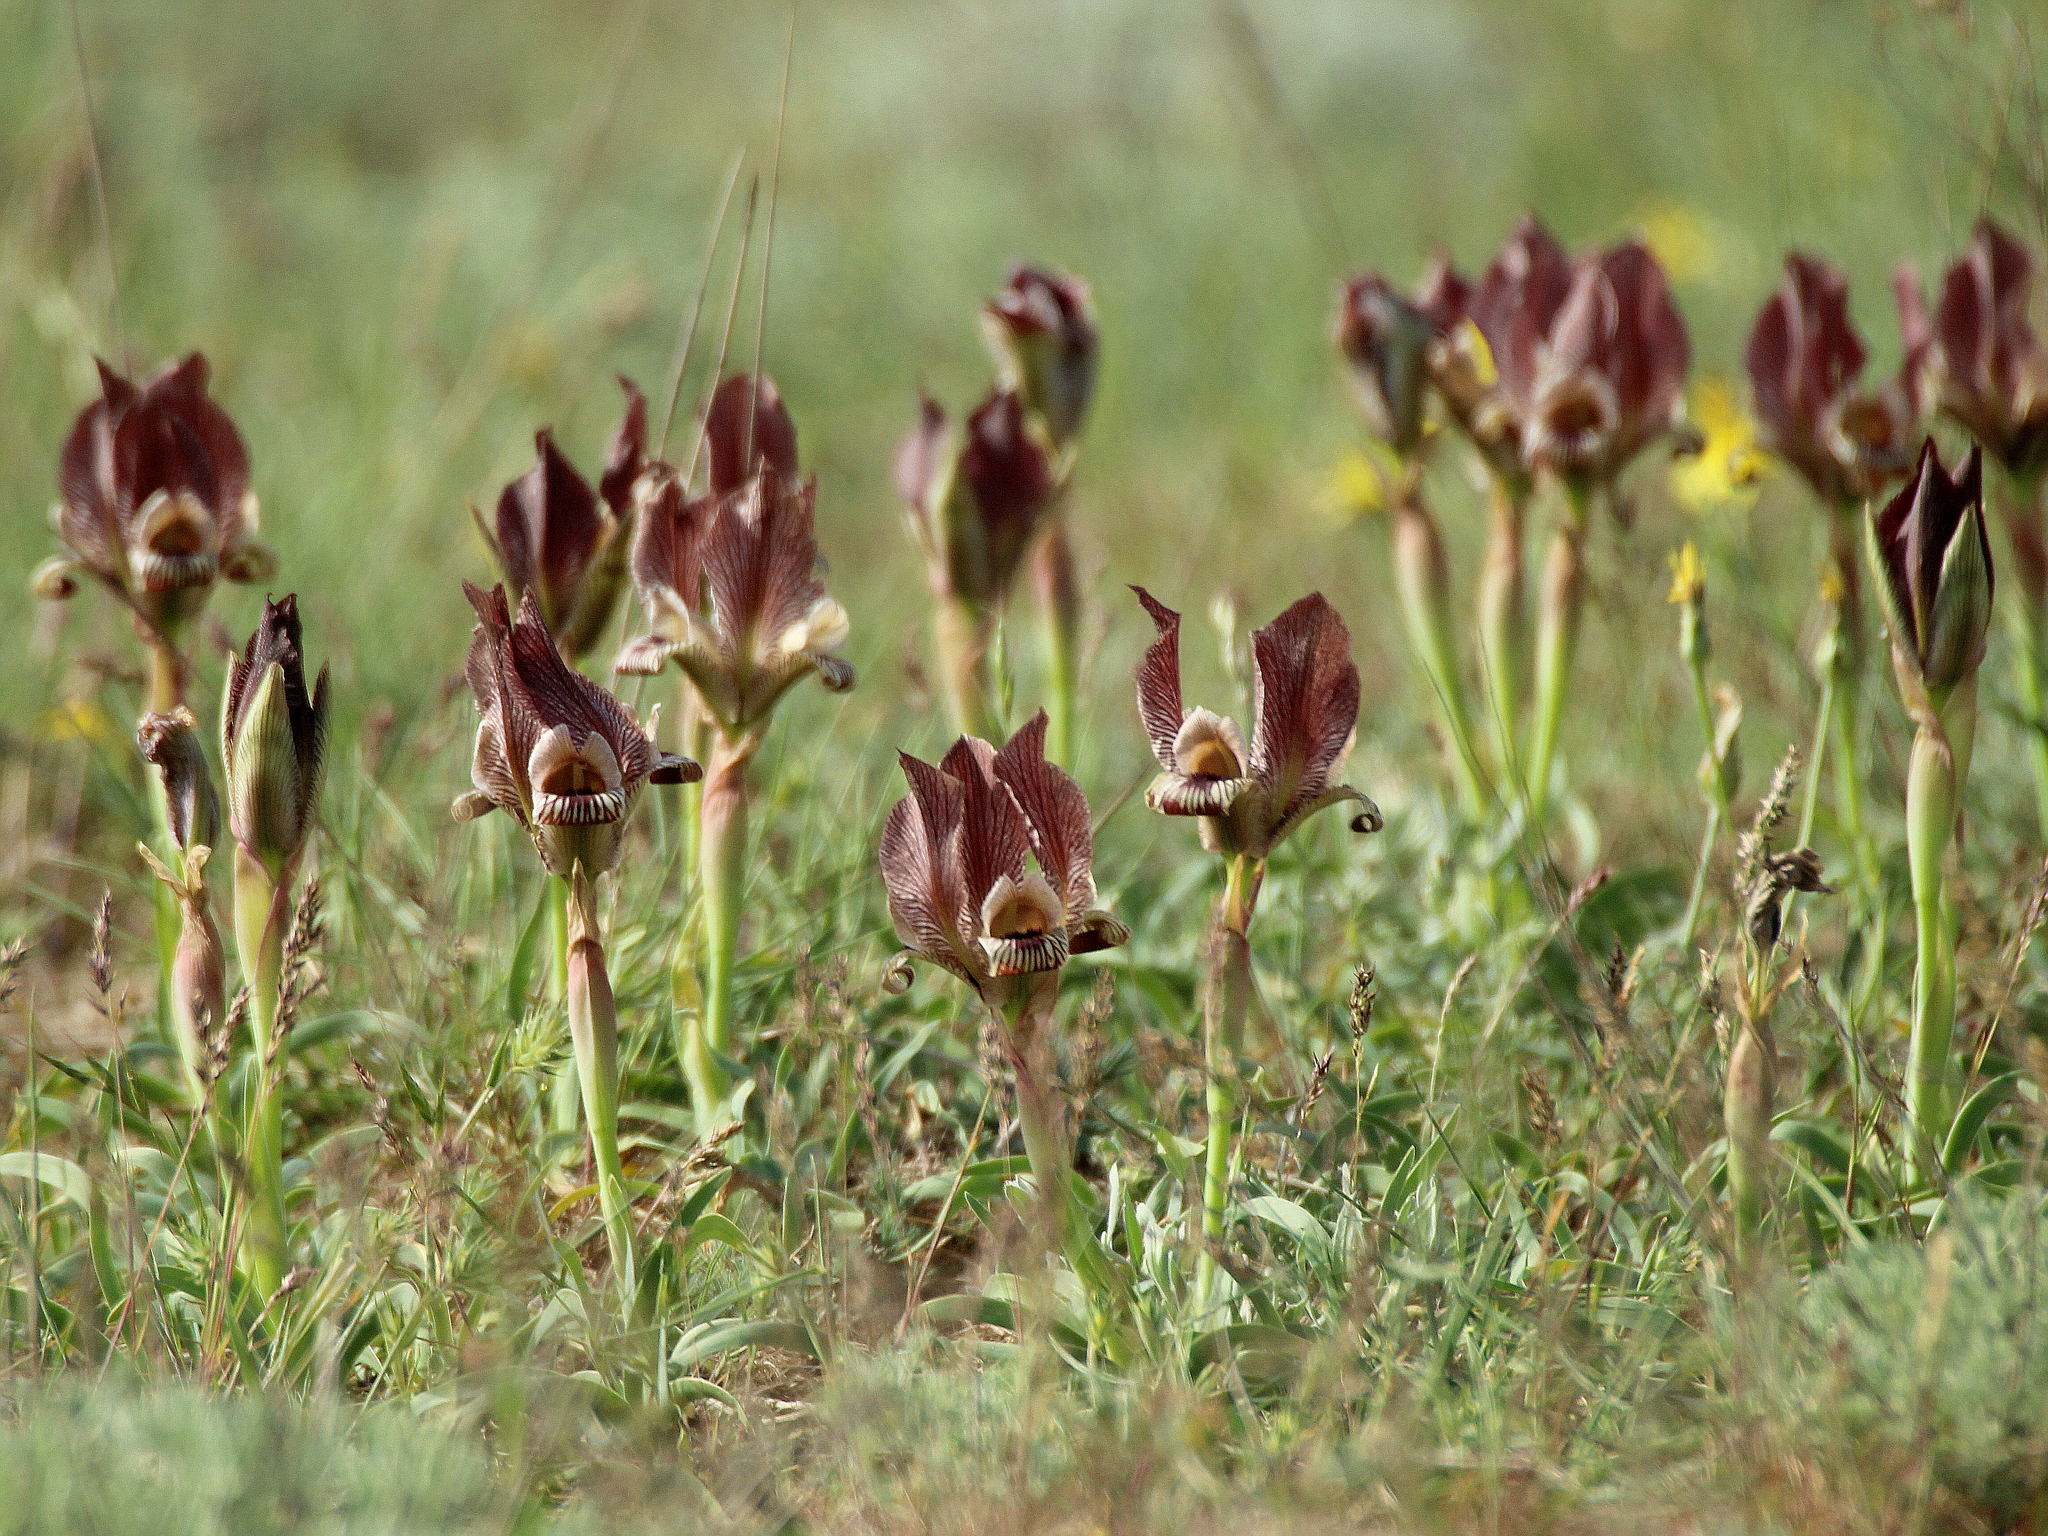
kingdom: Plantae
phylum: Tracheophyta
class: Liliopsida
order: Asparagales
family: Iridaceae
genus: Iris
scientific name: Iris acutiloba
